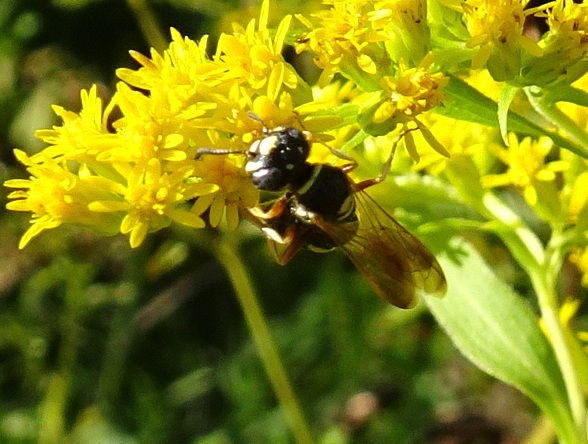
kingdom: Animalia
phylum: Arthropoda
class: Insecta
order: Hymenoptera
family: Crabronidae
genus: Philanthus
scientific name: Philanthus gibbosus
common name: Humped beewolf
